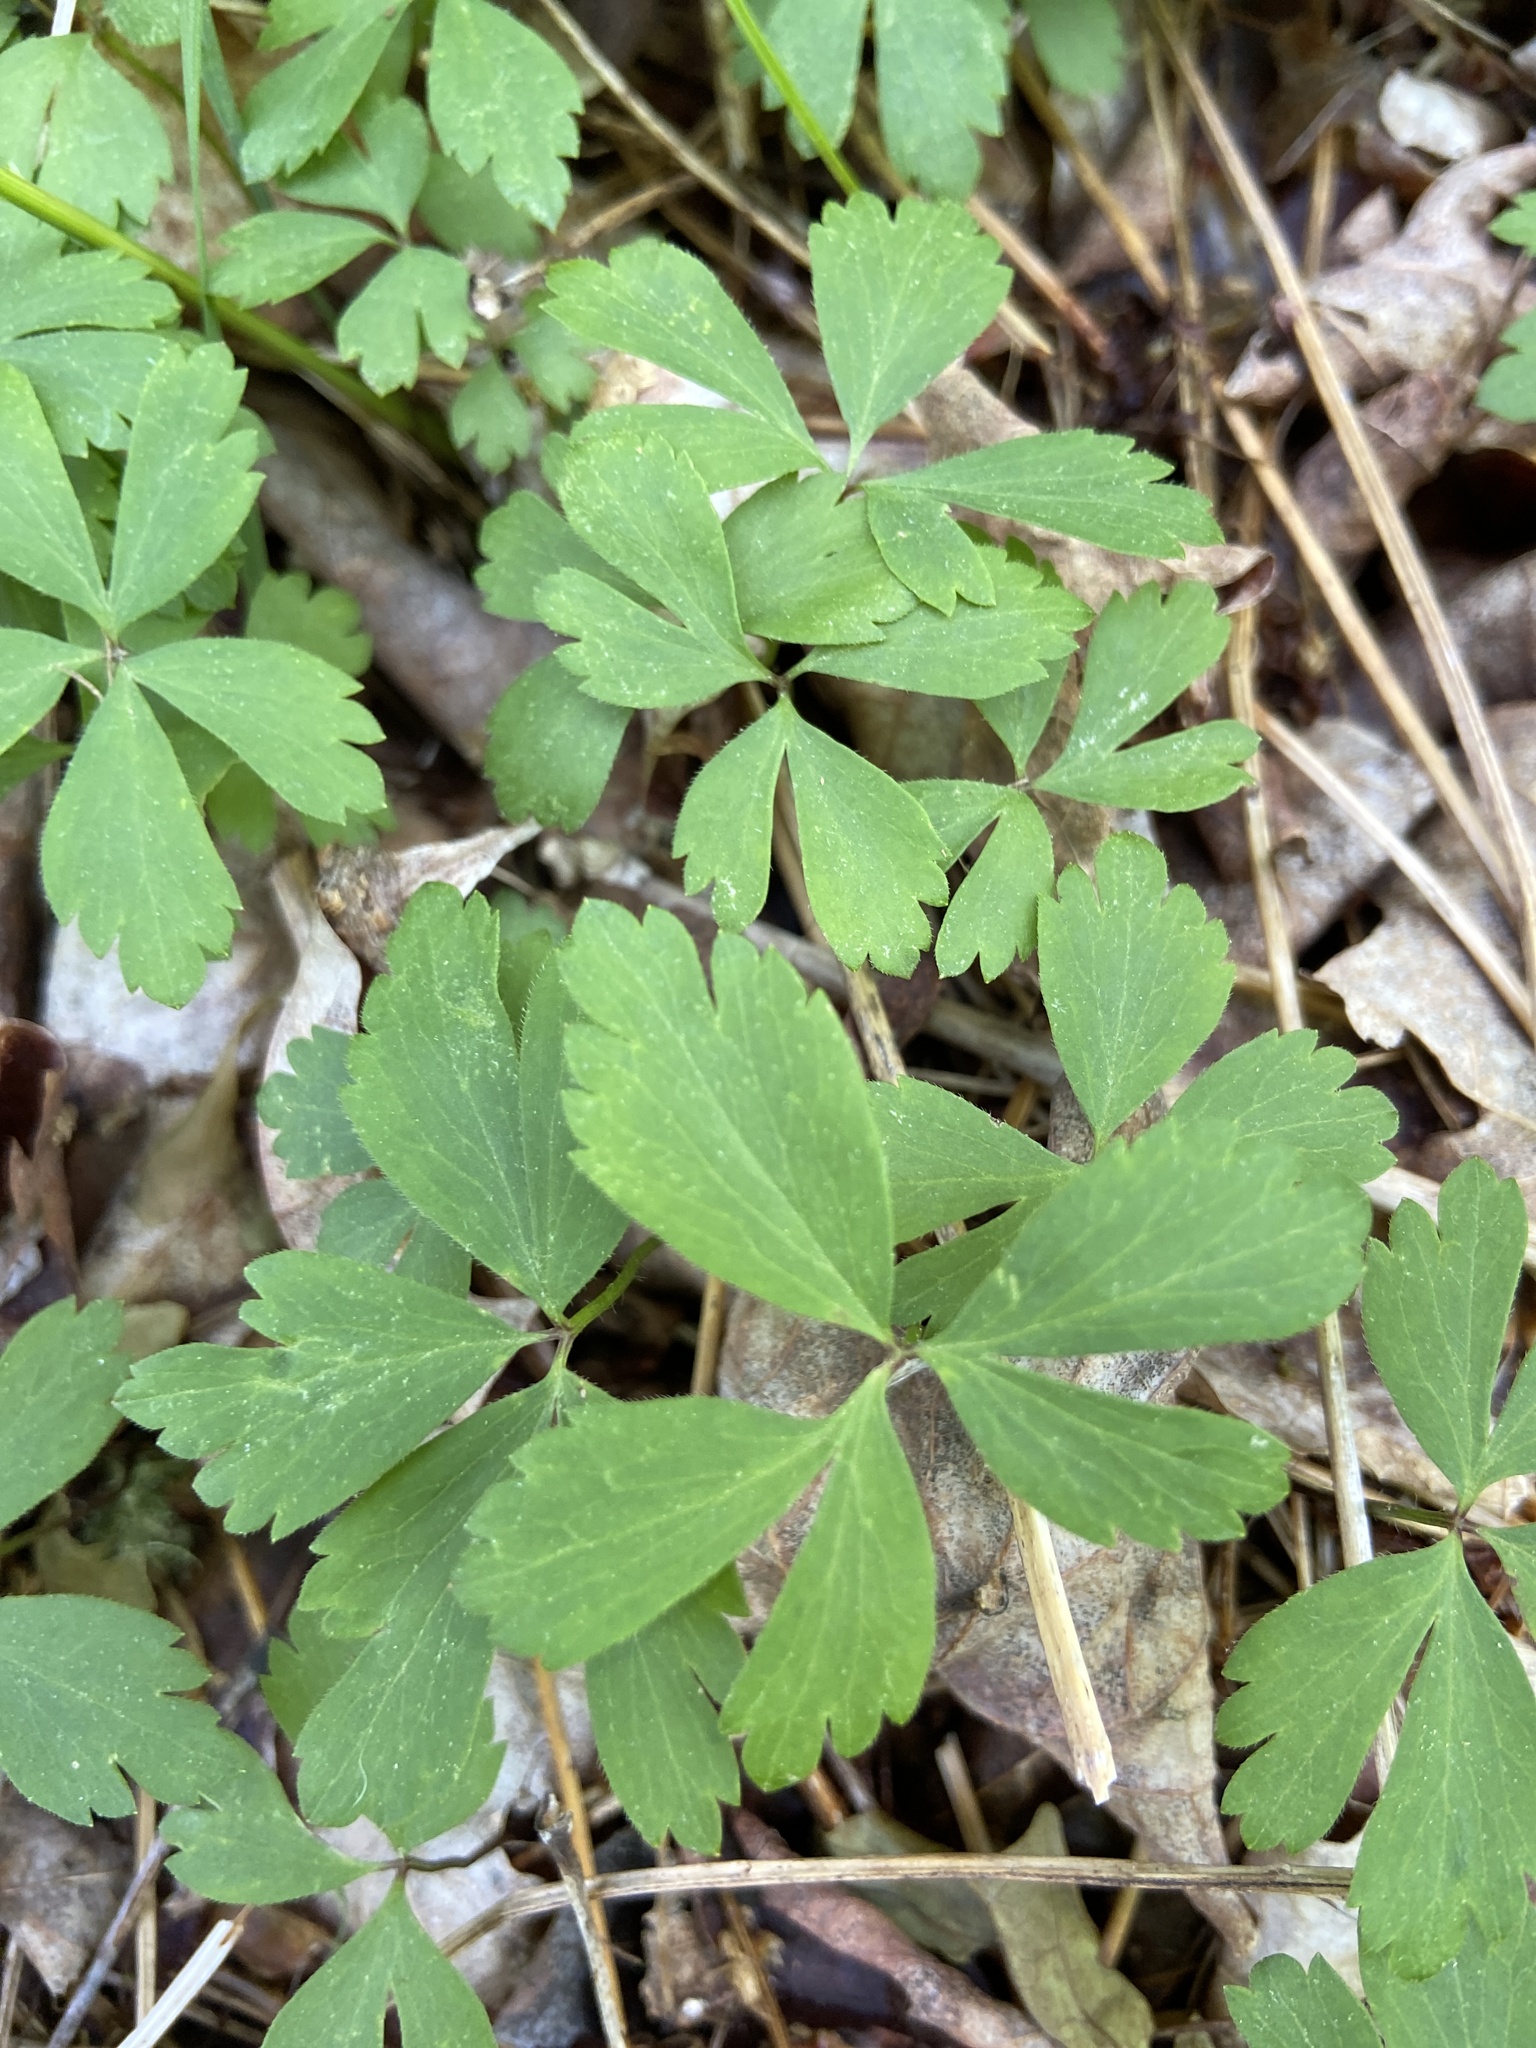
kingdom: Plantae
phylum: Tracheophyta
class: Magnoliopsida
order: Ranunculales
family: Ranunculaceae
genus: Anemone
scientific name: Anemone quinquefolia
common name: Wood anemone
